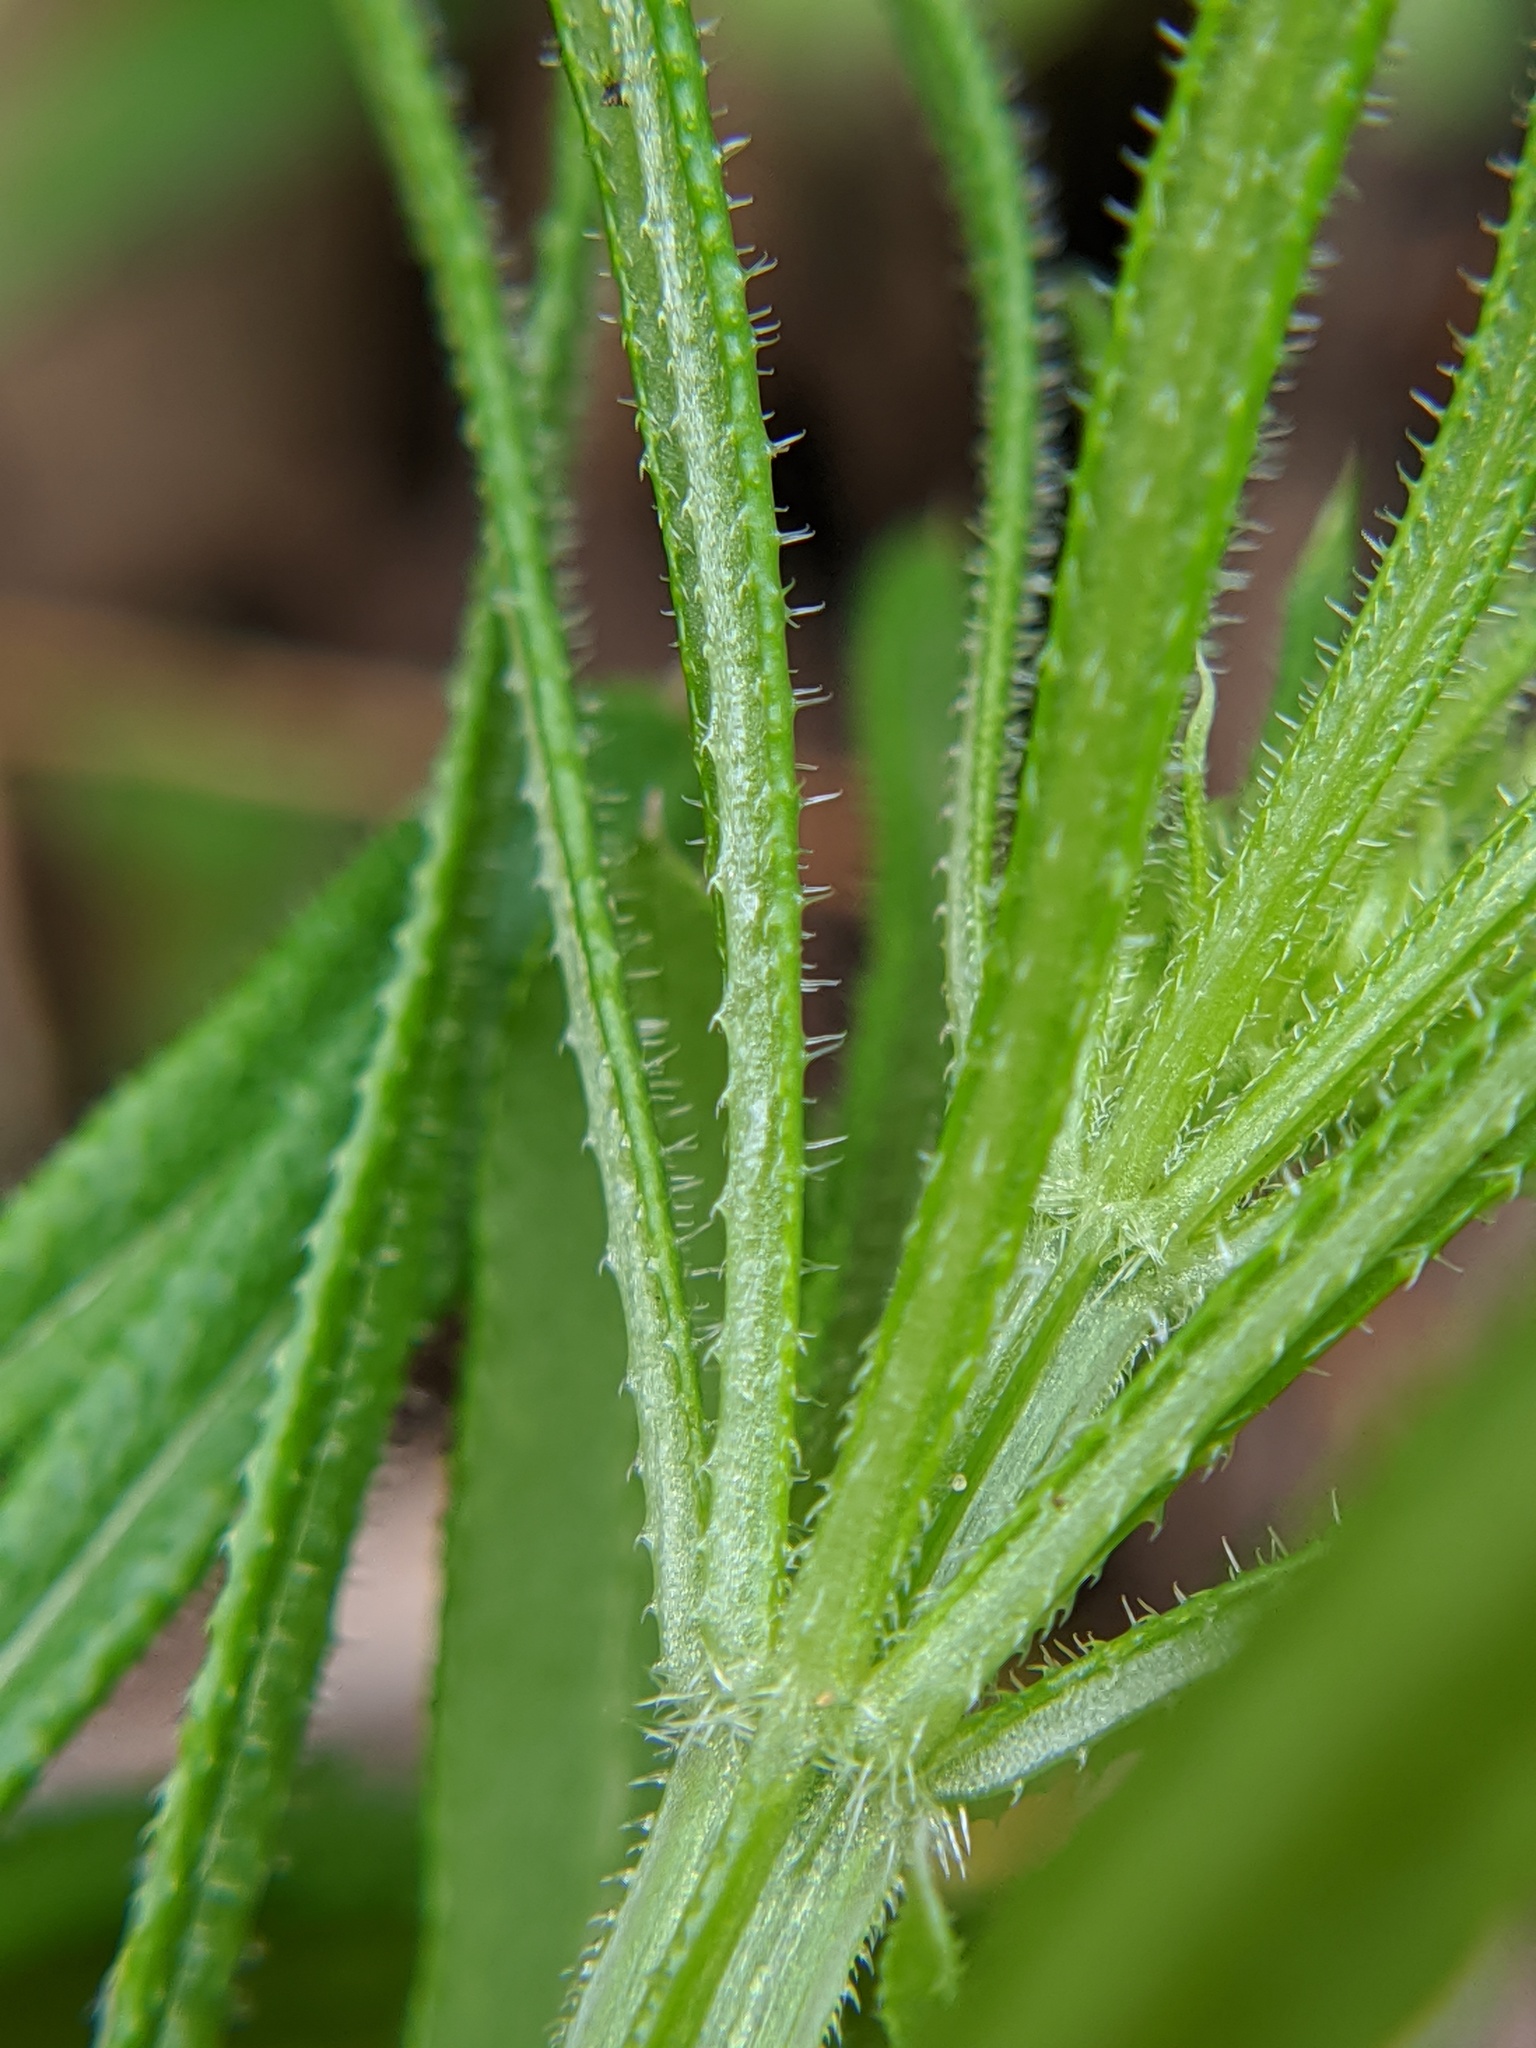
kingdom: Plantae
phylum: Tracheophyta
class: Magnoliopsida
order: Gentianales
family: Rubiaceae
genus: Galium
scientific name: Galium aparine
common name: Cleavers
